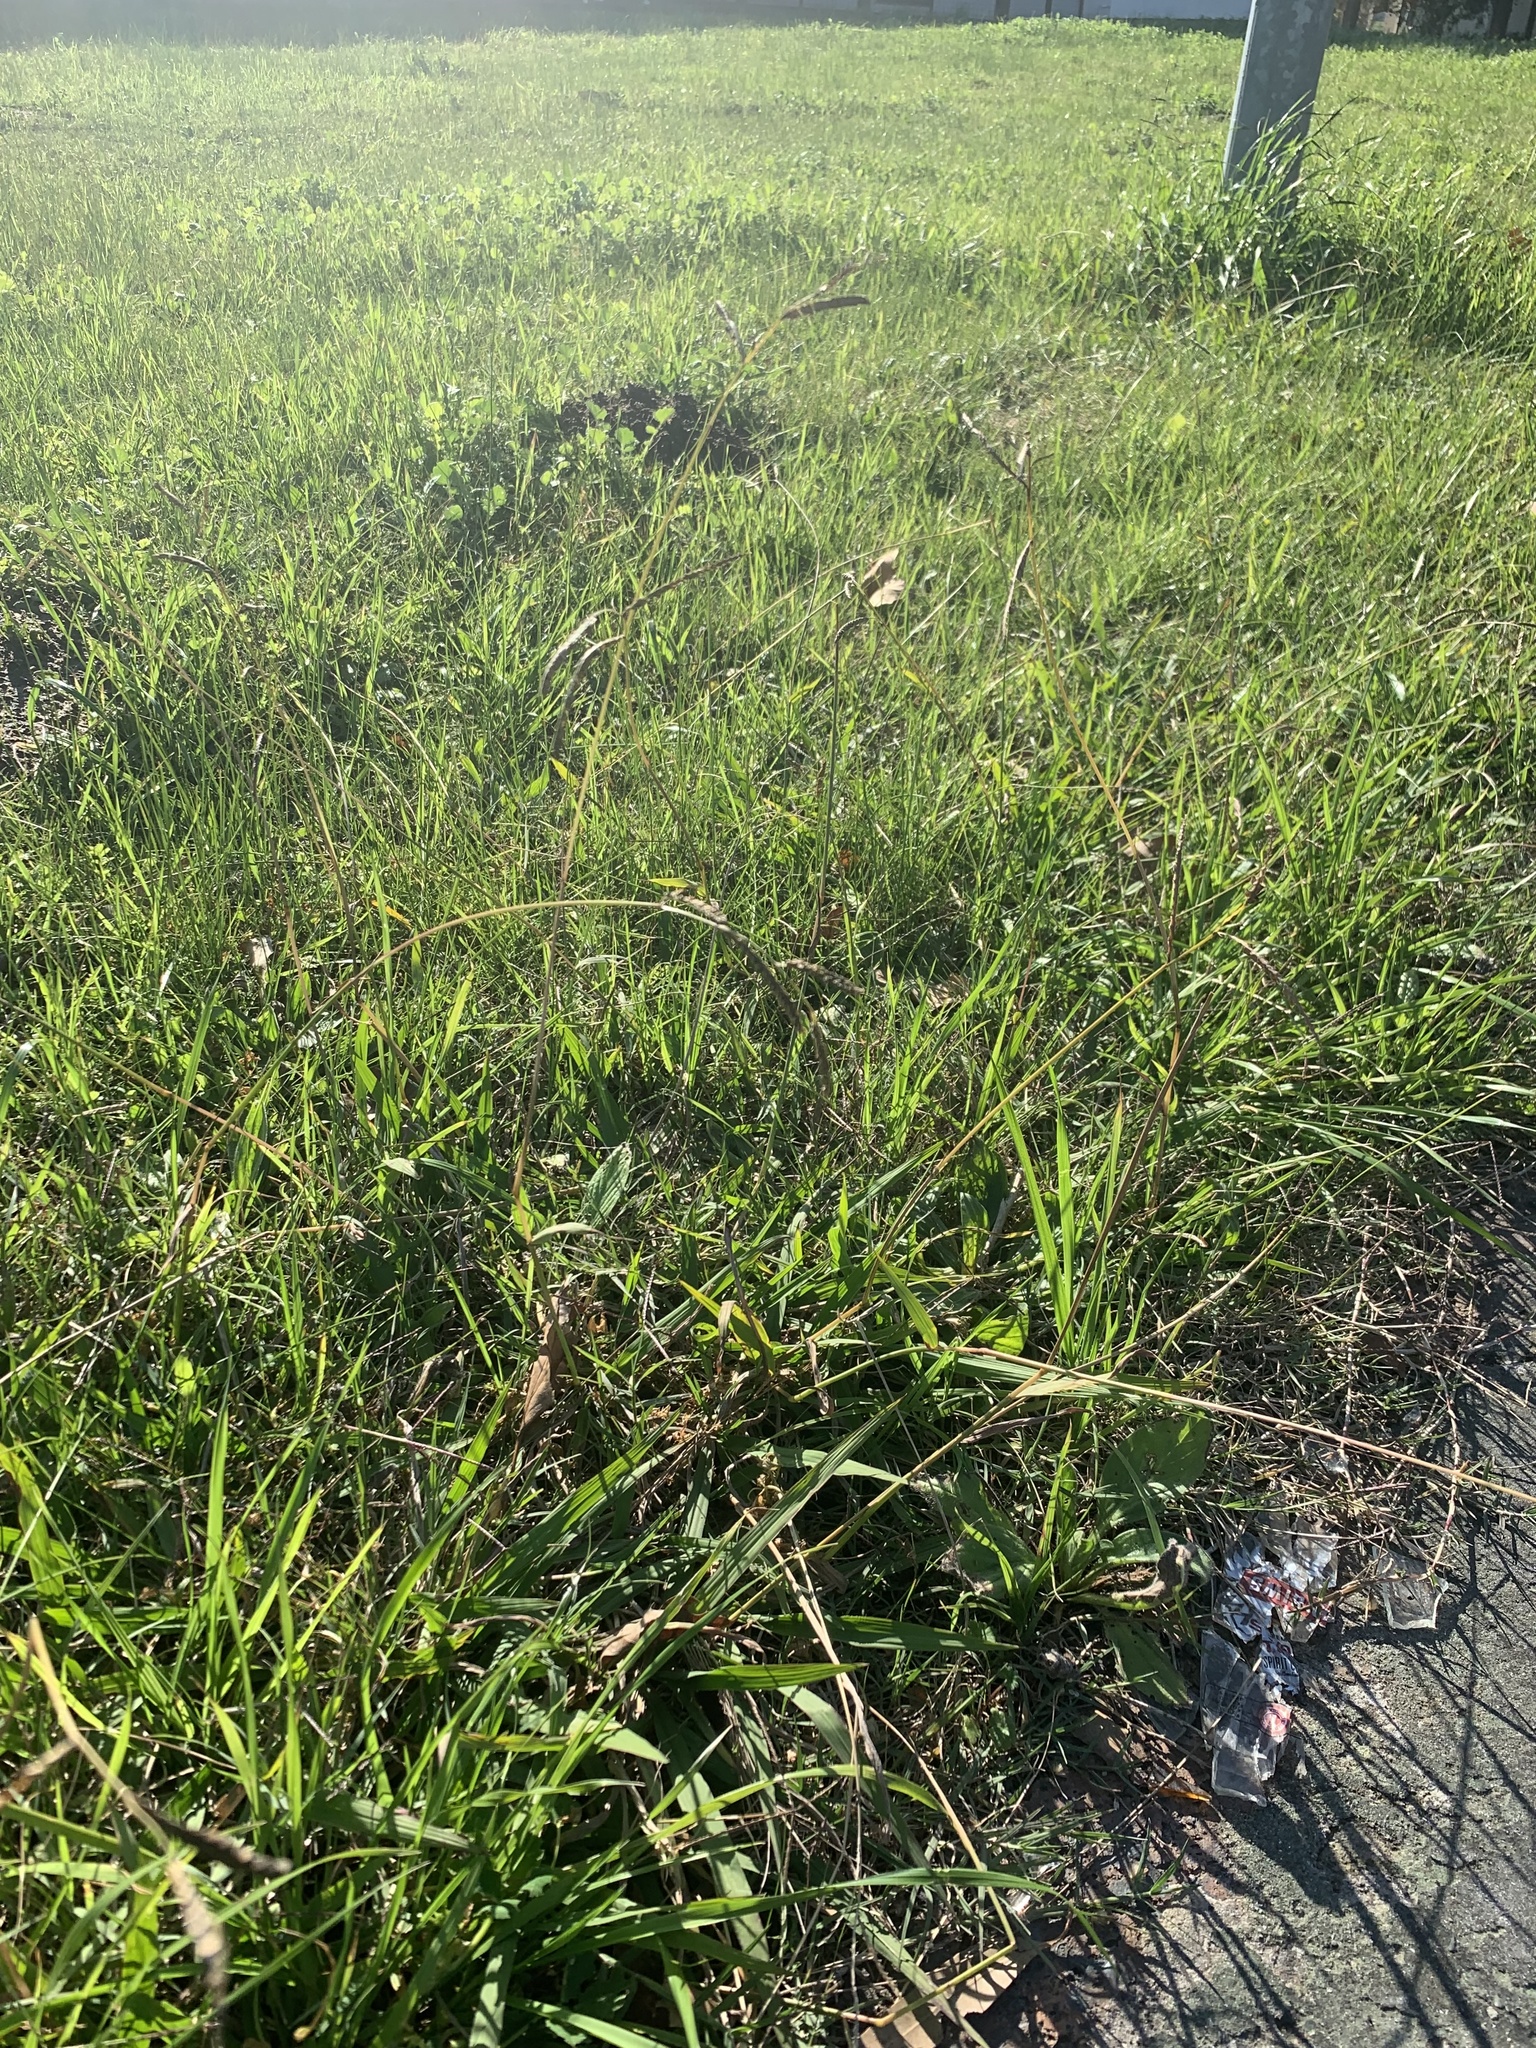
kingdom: Plantae
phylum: Tracheophyta
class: Liliopsida
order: Poales
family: Poaceae
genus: Paspalum
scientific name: Paspalum dilatatum
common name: Dallisgrass
